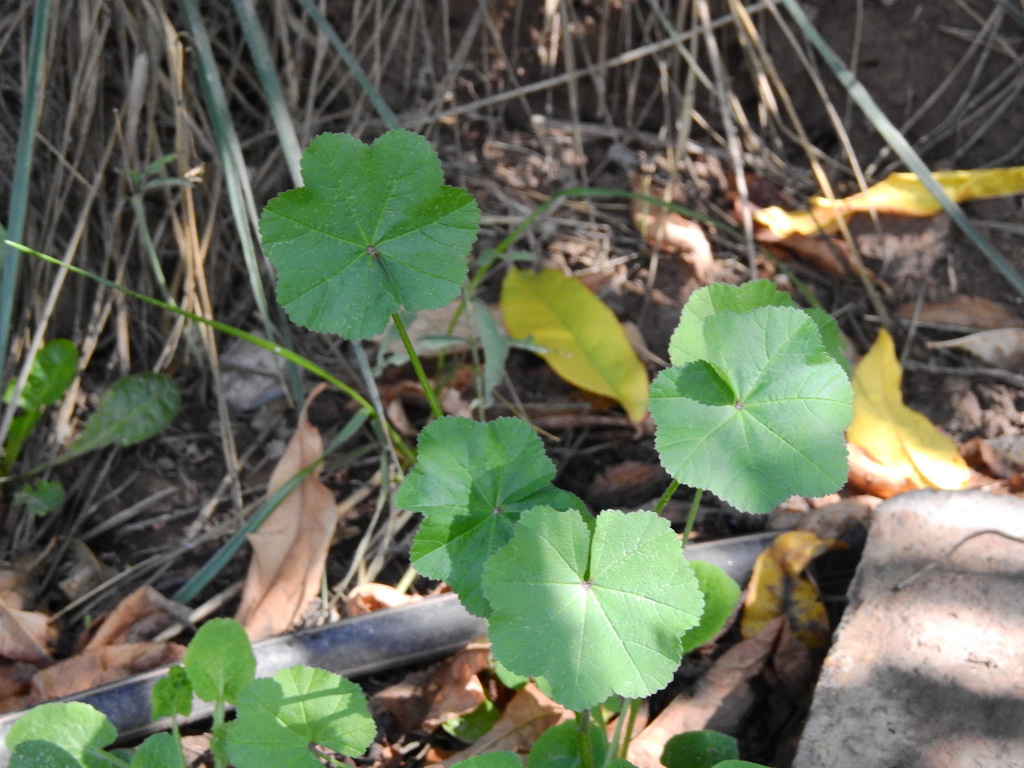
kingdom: Plantae
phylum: Tracheophyta
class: Magnoliopsida
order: Malvales
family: Malvaceae
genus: Malva
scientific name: Malva parviflora
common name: Least mallow
